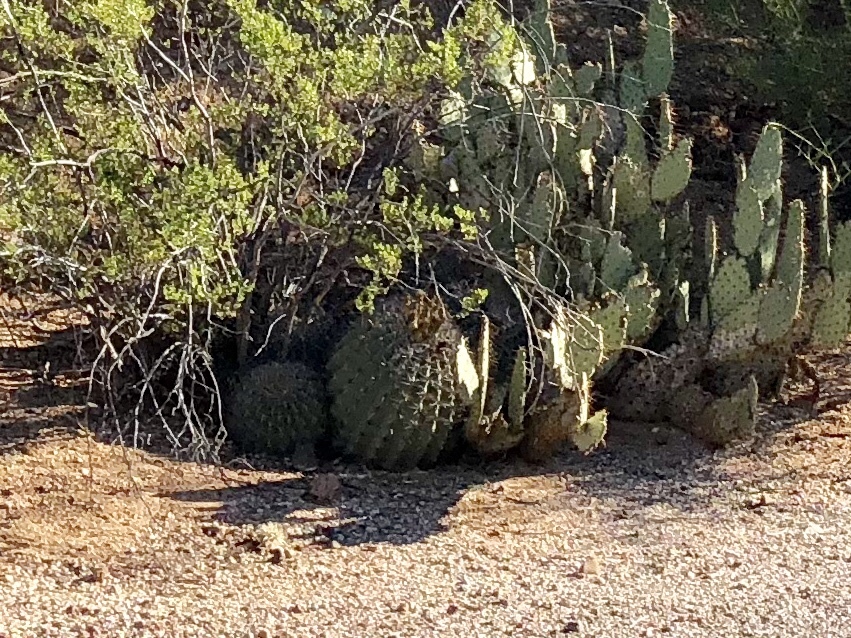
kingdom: Plantae
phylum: Tracheophyta
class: Magnoliopsida
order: Caryophyllales
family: Cactaceae
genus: Ferocactus
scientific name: Ferocactus wislizeni
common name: Candy barrel cactus
